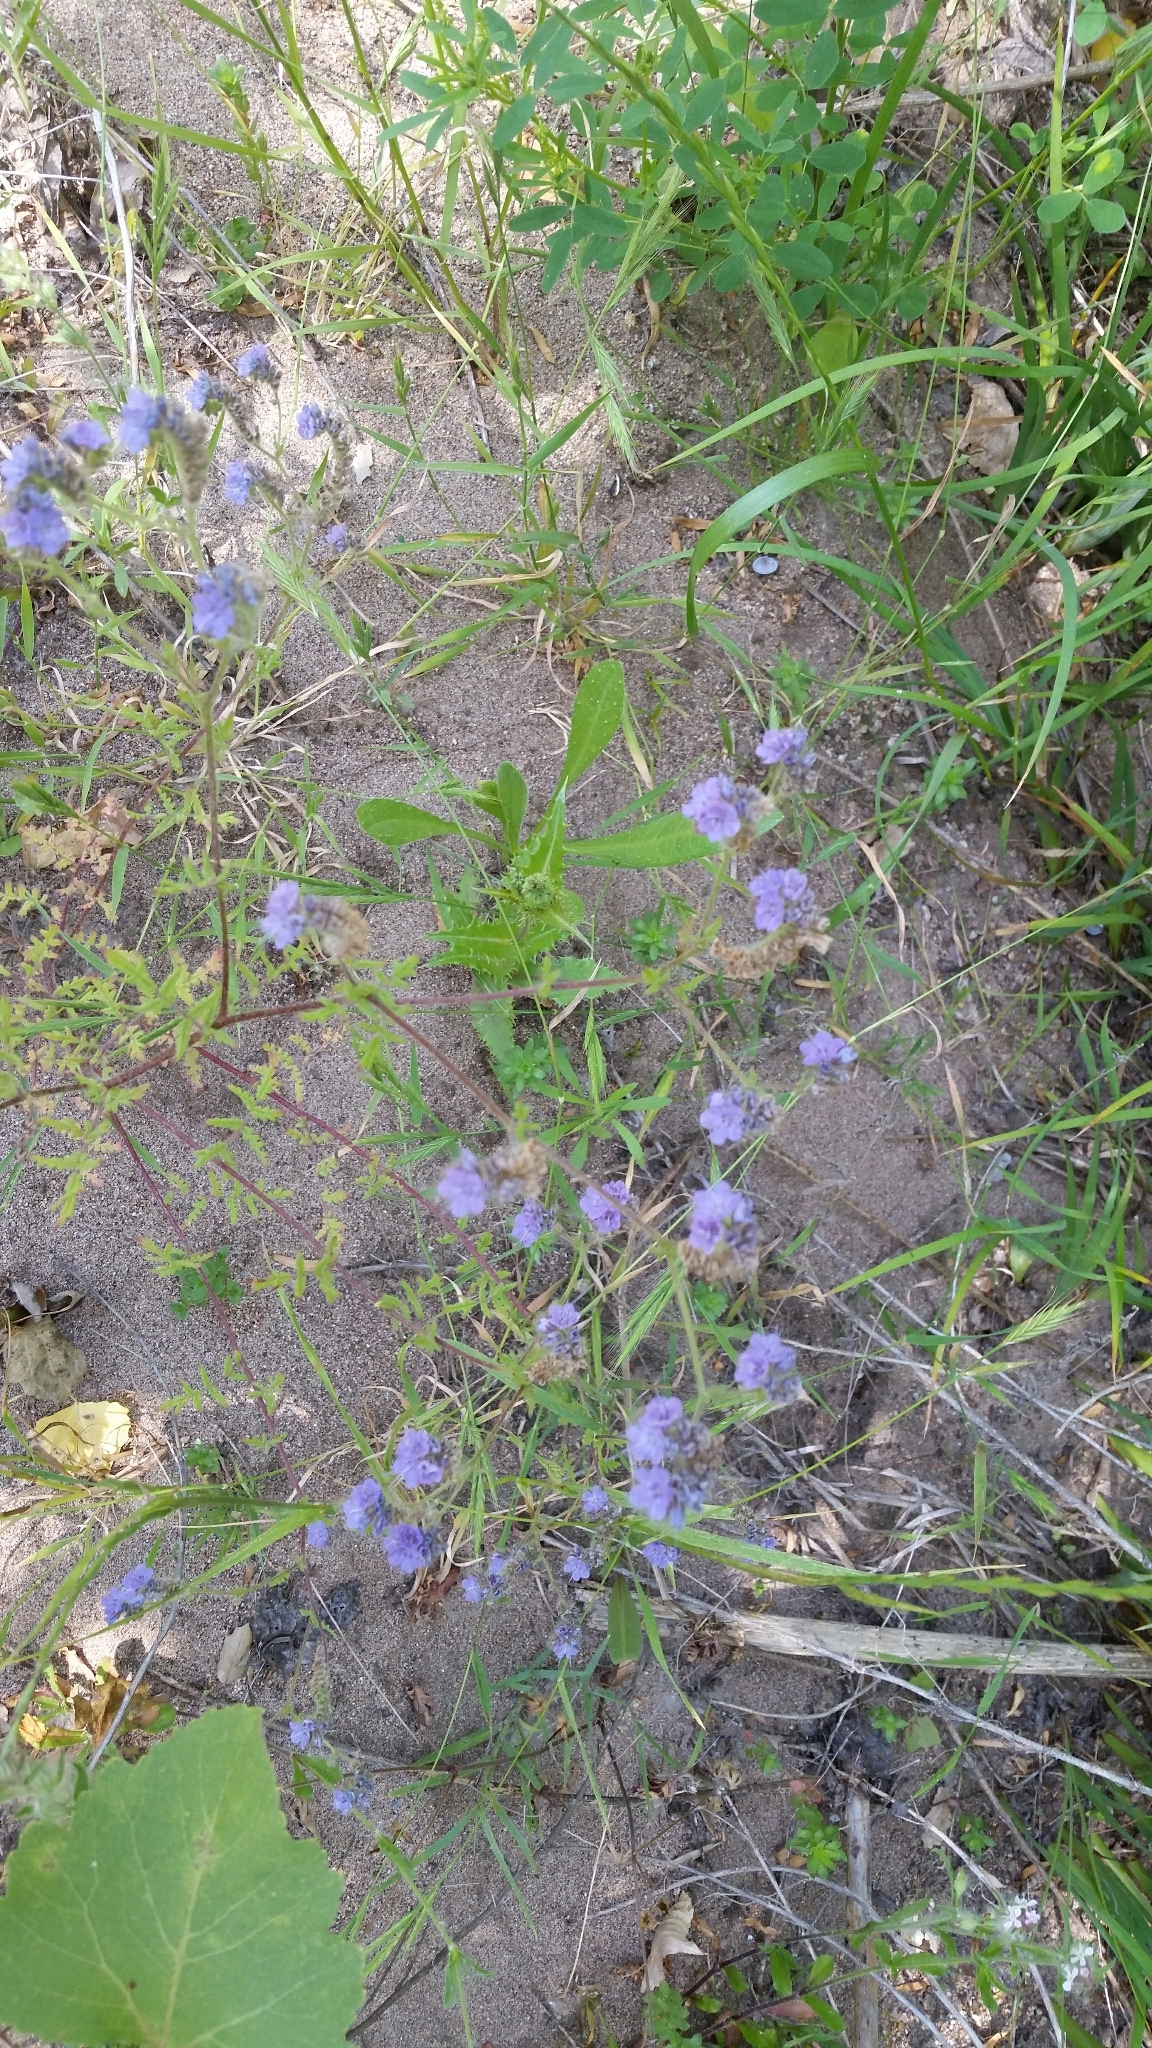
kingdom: Plantae
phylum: Tracheophyta
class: Magnoliopsida
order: Boraginales
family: Hydrophyllaceae
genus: Phacelia
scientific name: Phacelia distans
